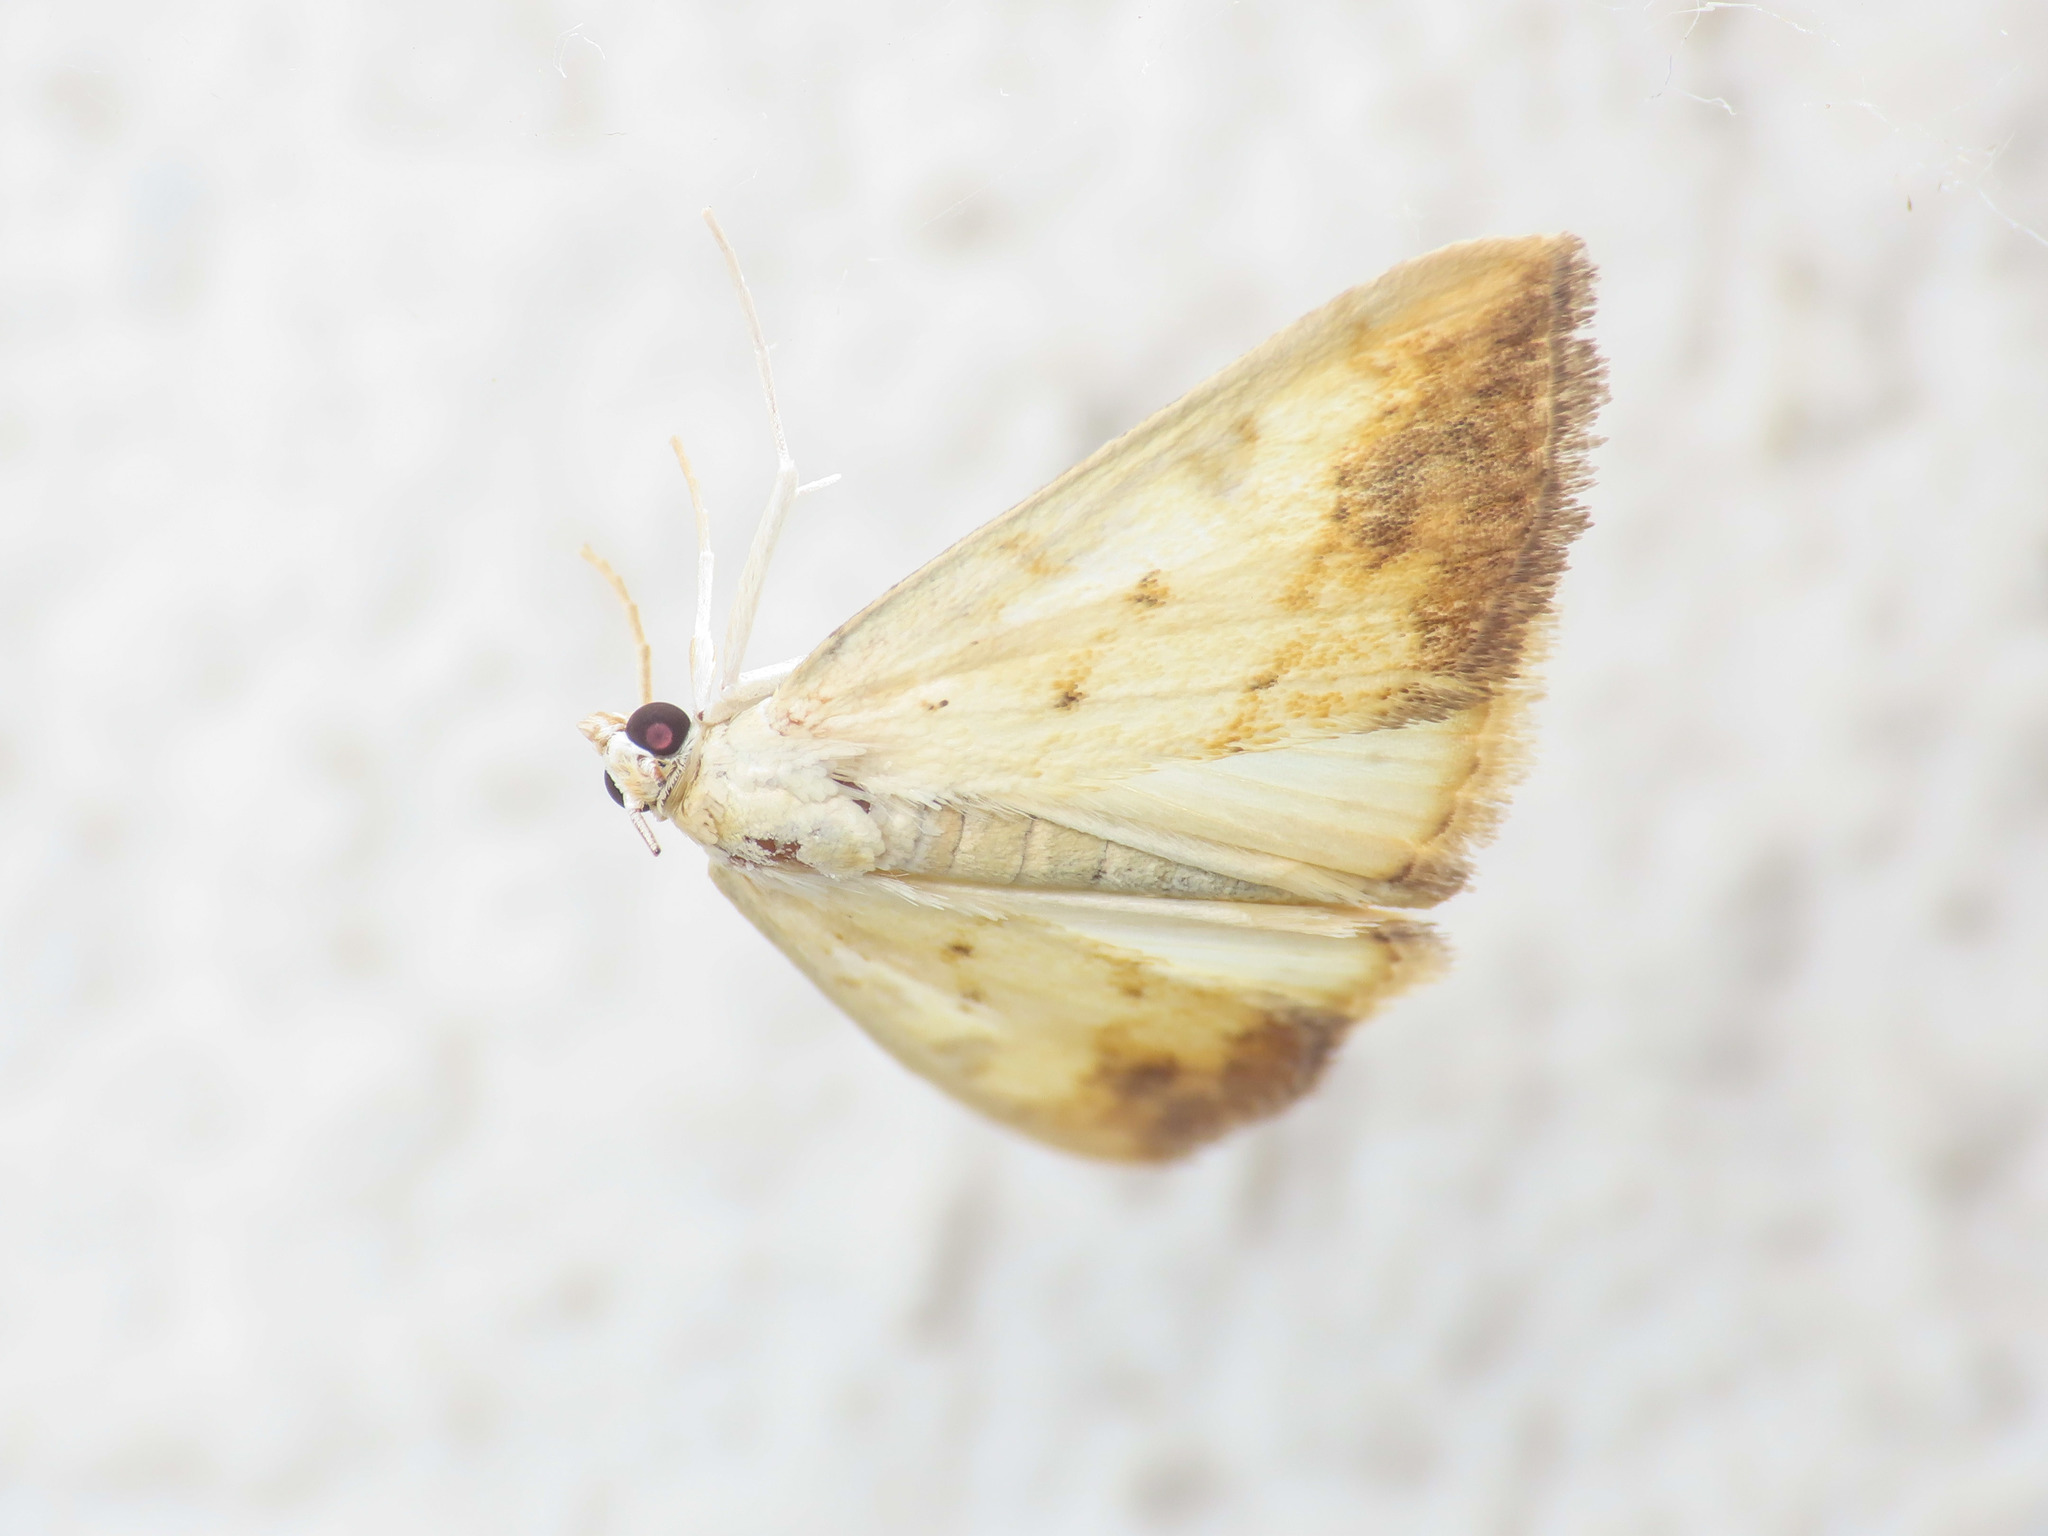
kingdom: Animalia
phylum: Arthropoda
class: Insecta
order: Lepidoptera
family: Crambidae
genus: Evergestis
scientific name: Evergestis extimalis
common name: Marbled yellow pearl
